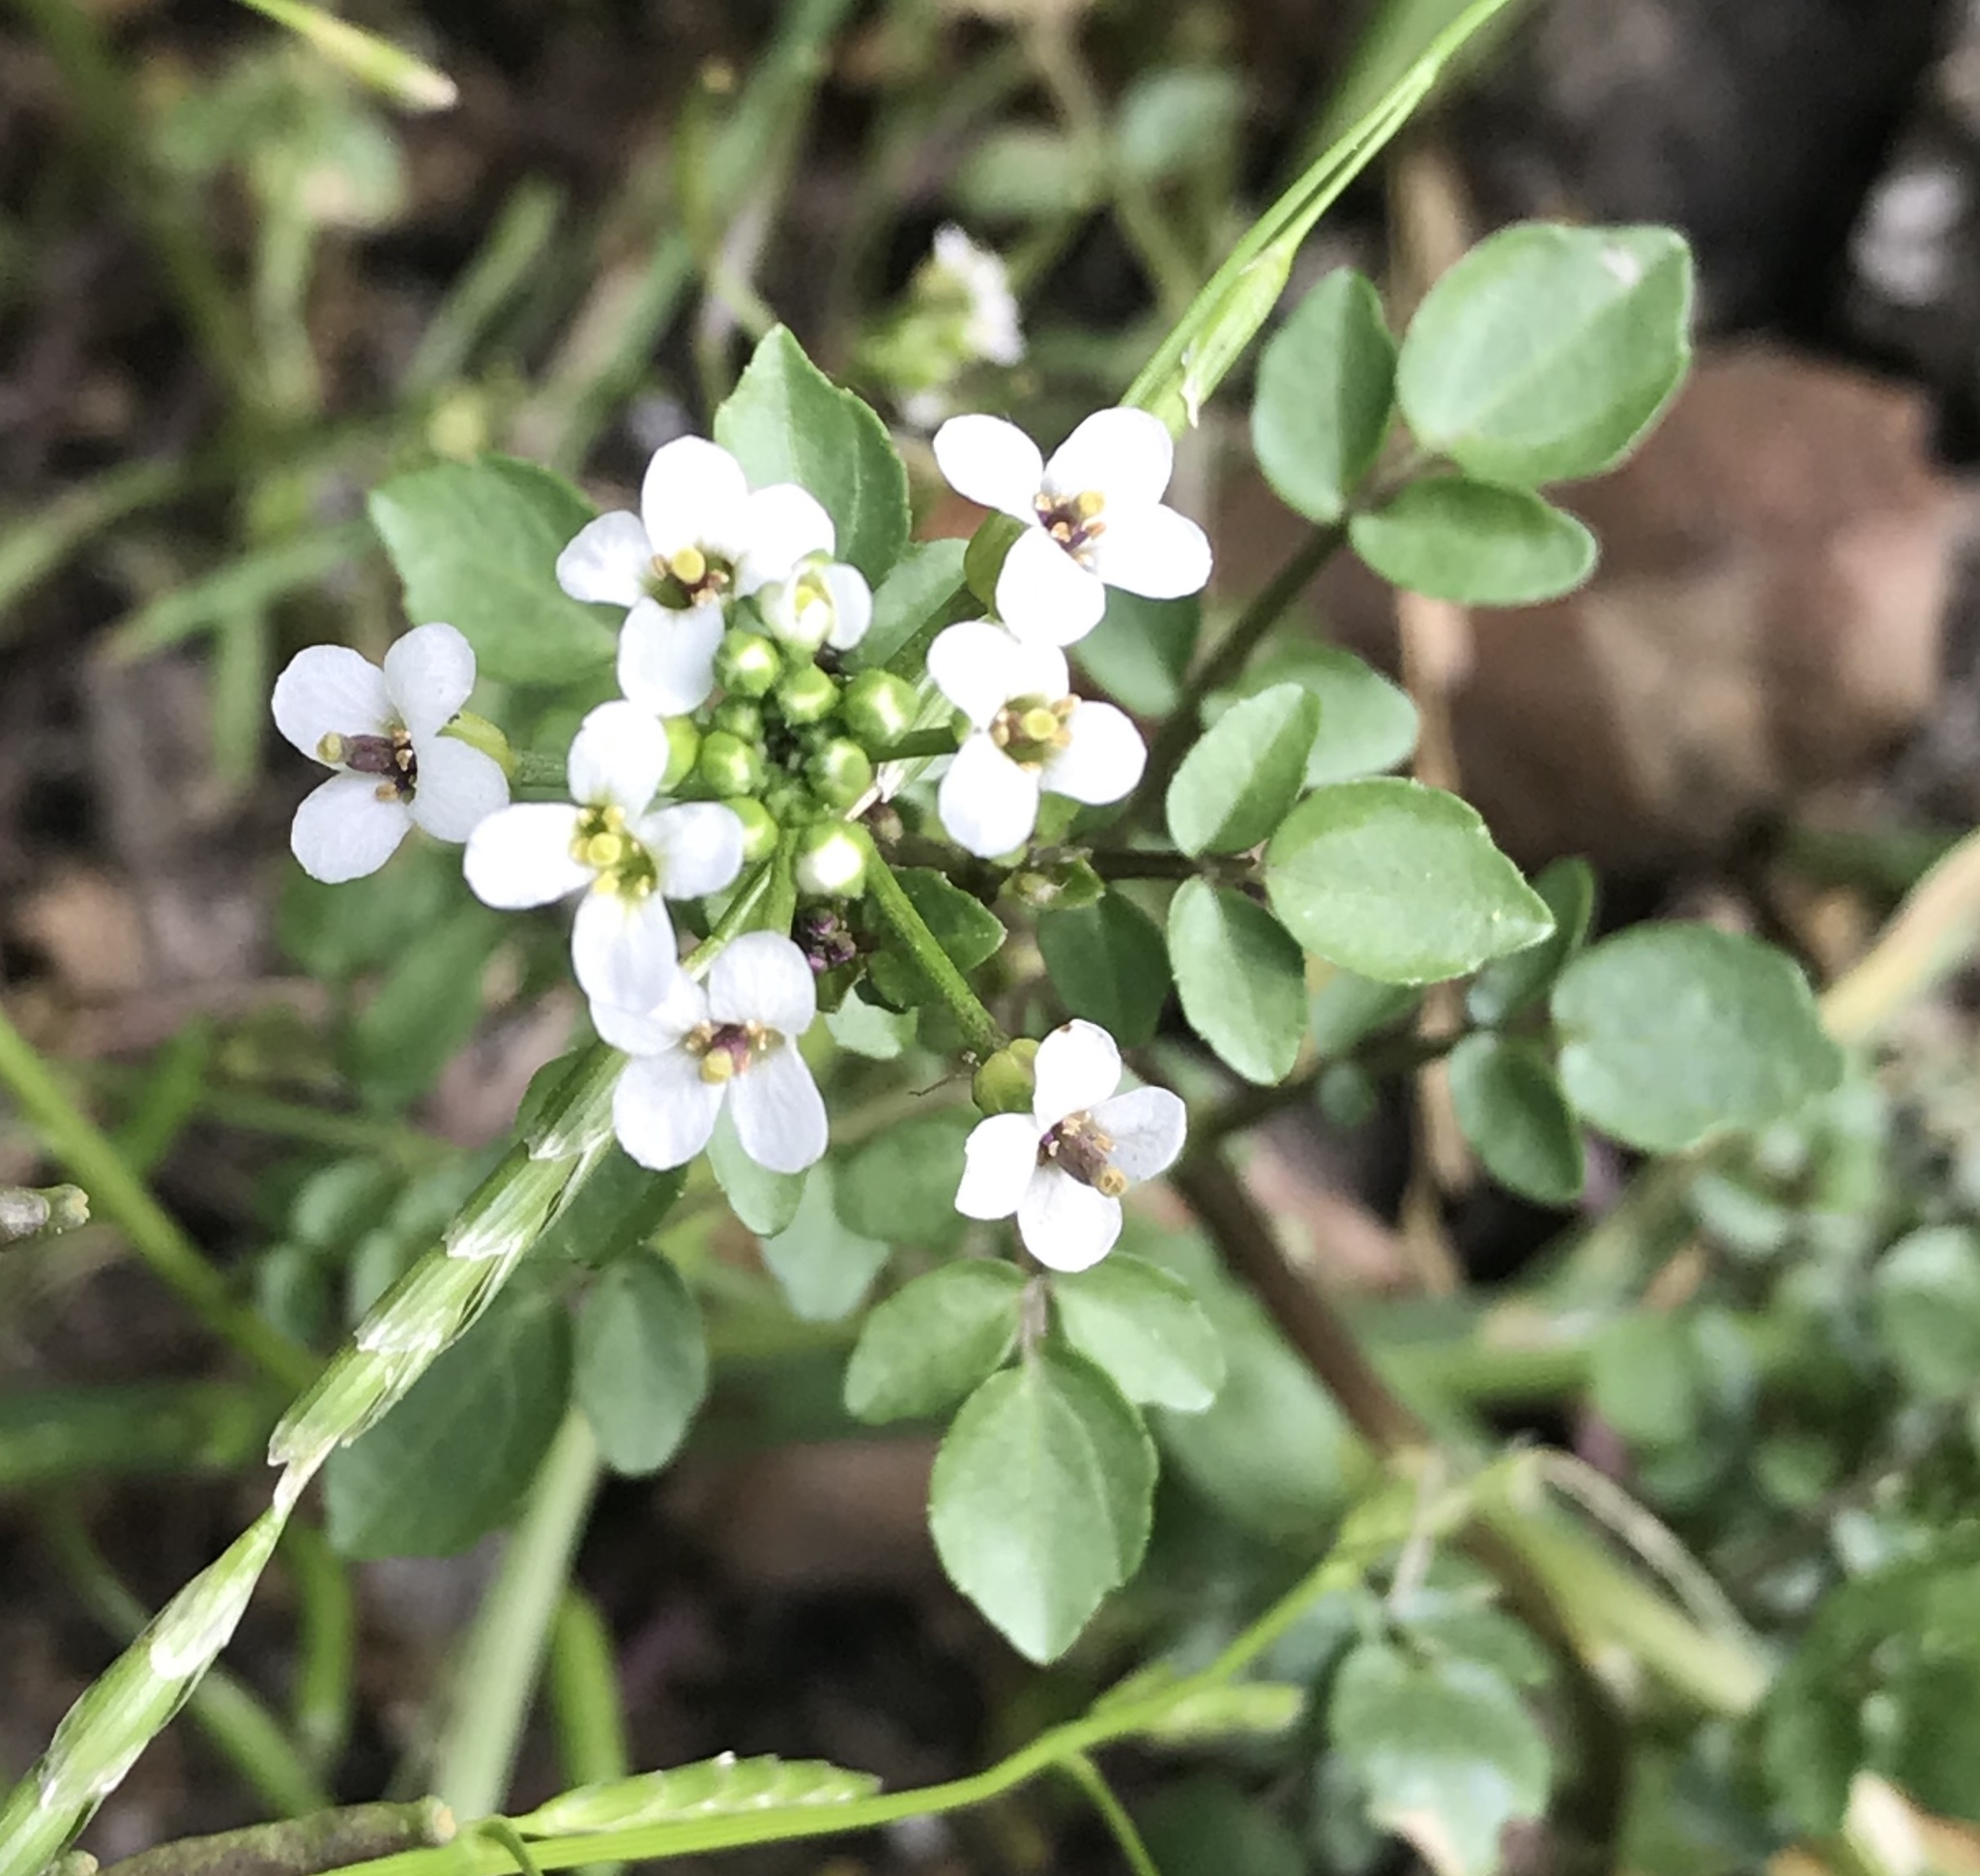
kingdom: Plantae
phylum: Tracheophyta
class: Magnoliopsida
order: Brassicales
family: Brassicaceae
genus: Nasturtium
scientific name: Nasturtium officinale
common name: Watercress
